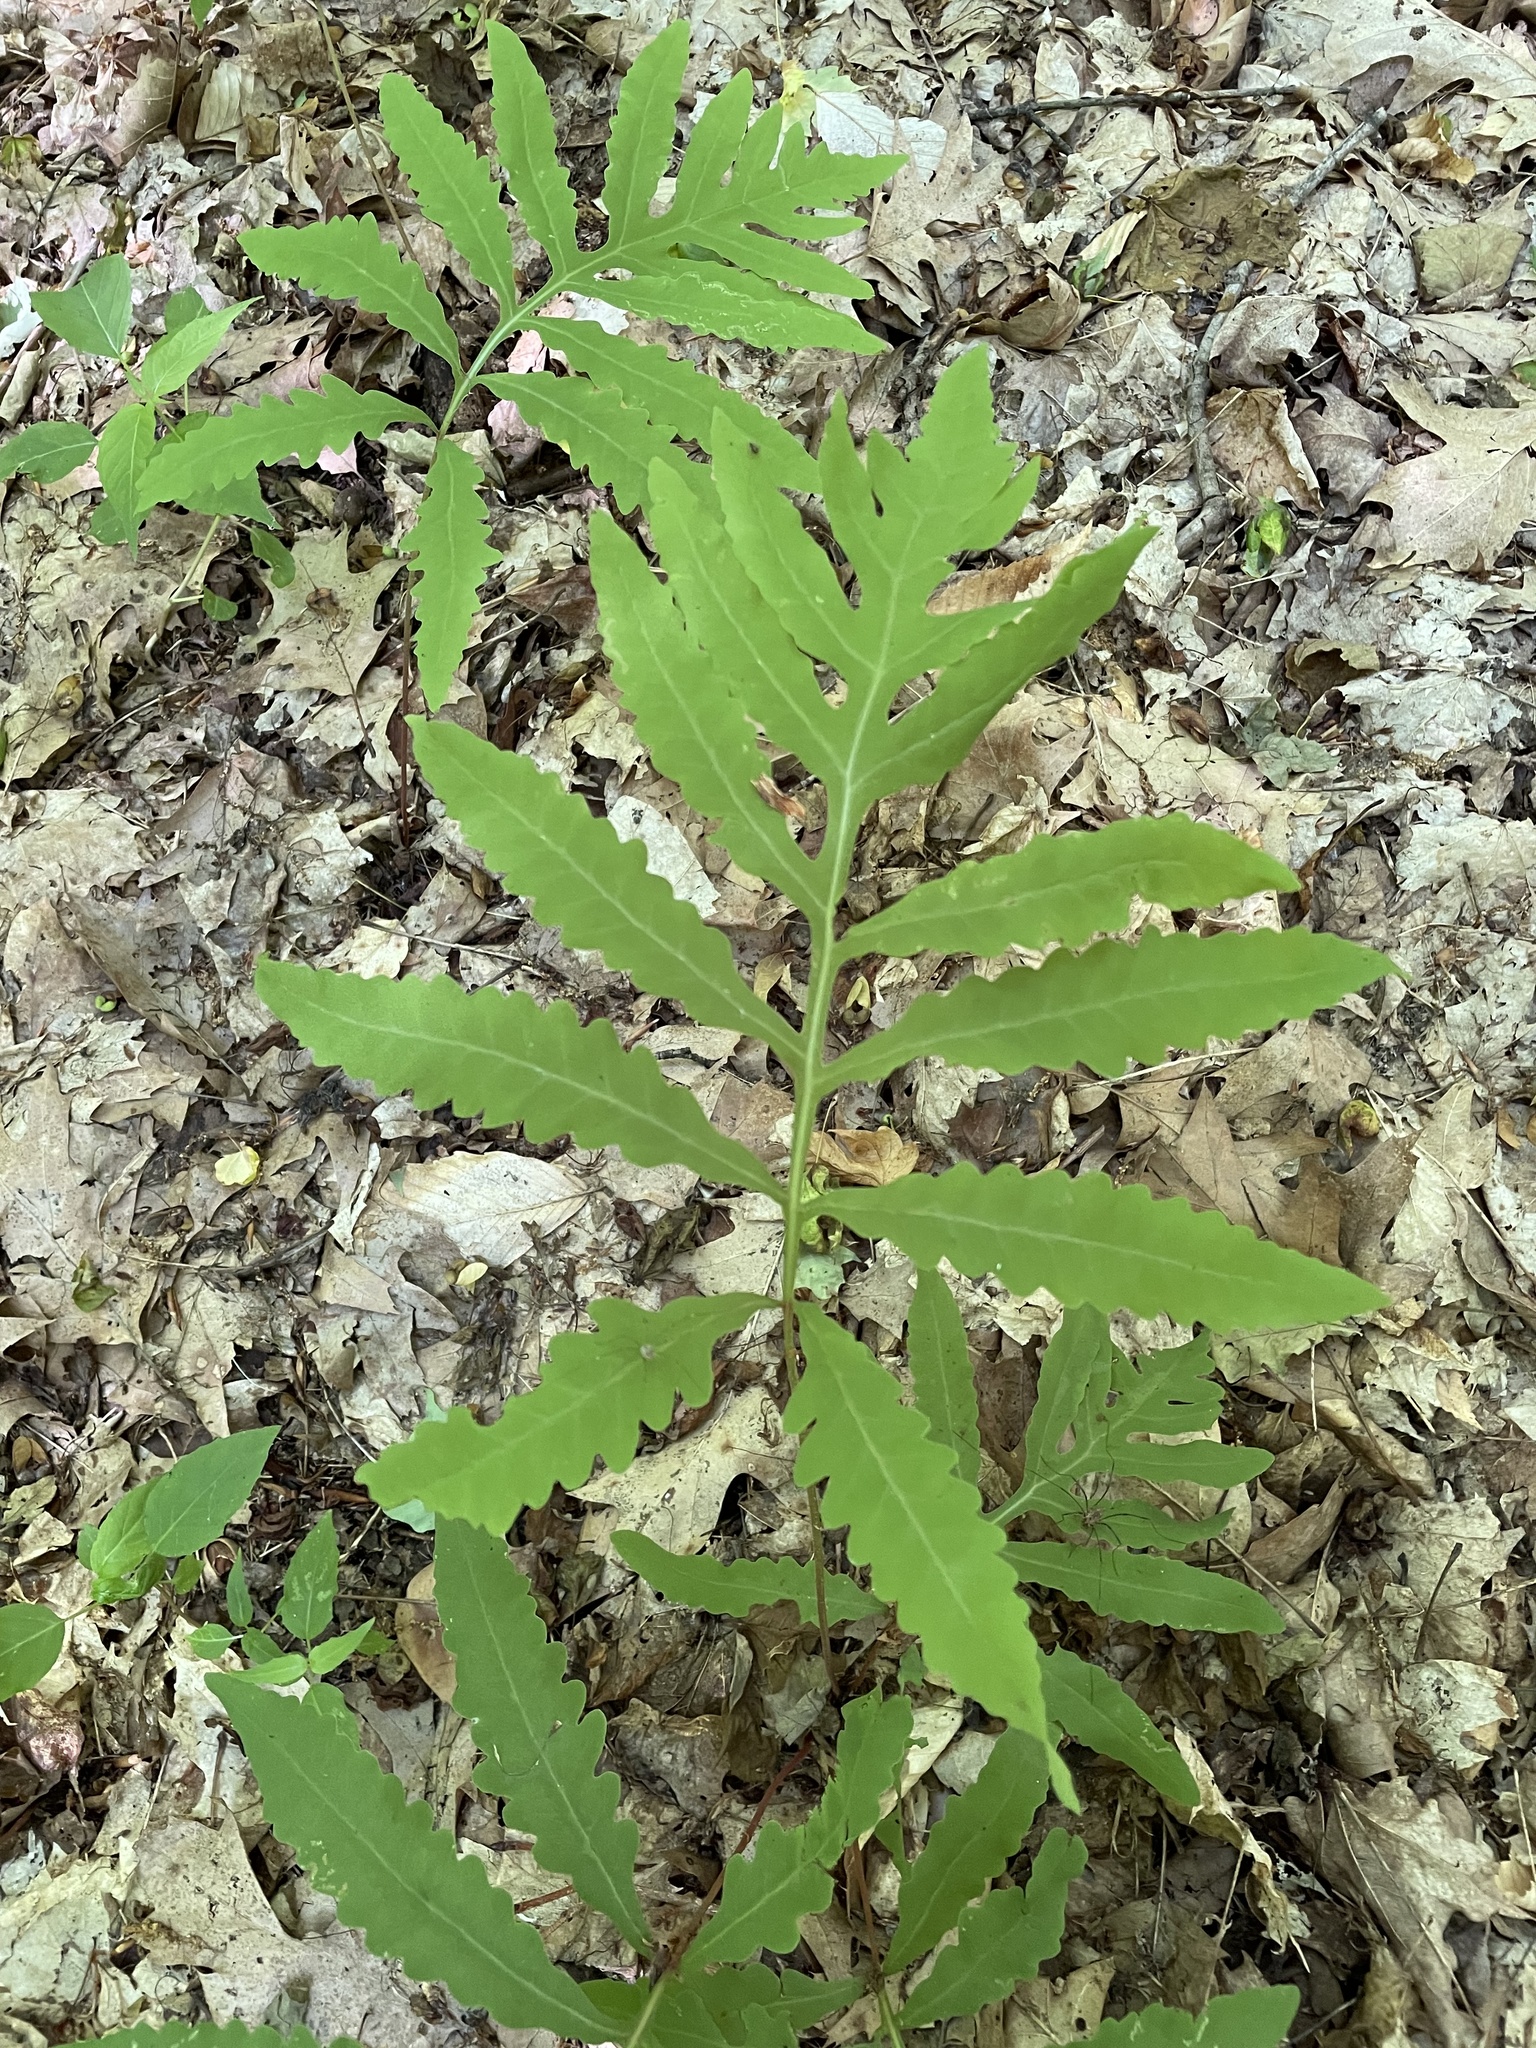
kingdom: Plantae
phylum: Tracheophyta
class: Polypodiopsida
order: Polypodiales
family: Onocleaceae
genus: Onoclea
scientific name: Onoclea sensibilis
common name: Sensitive fern
